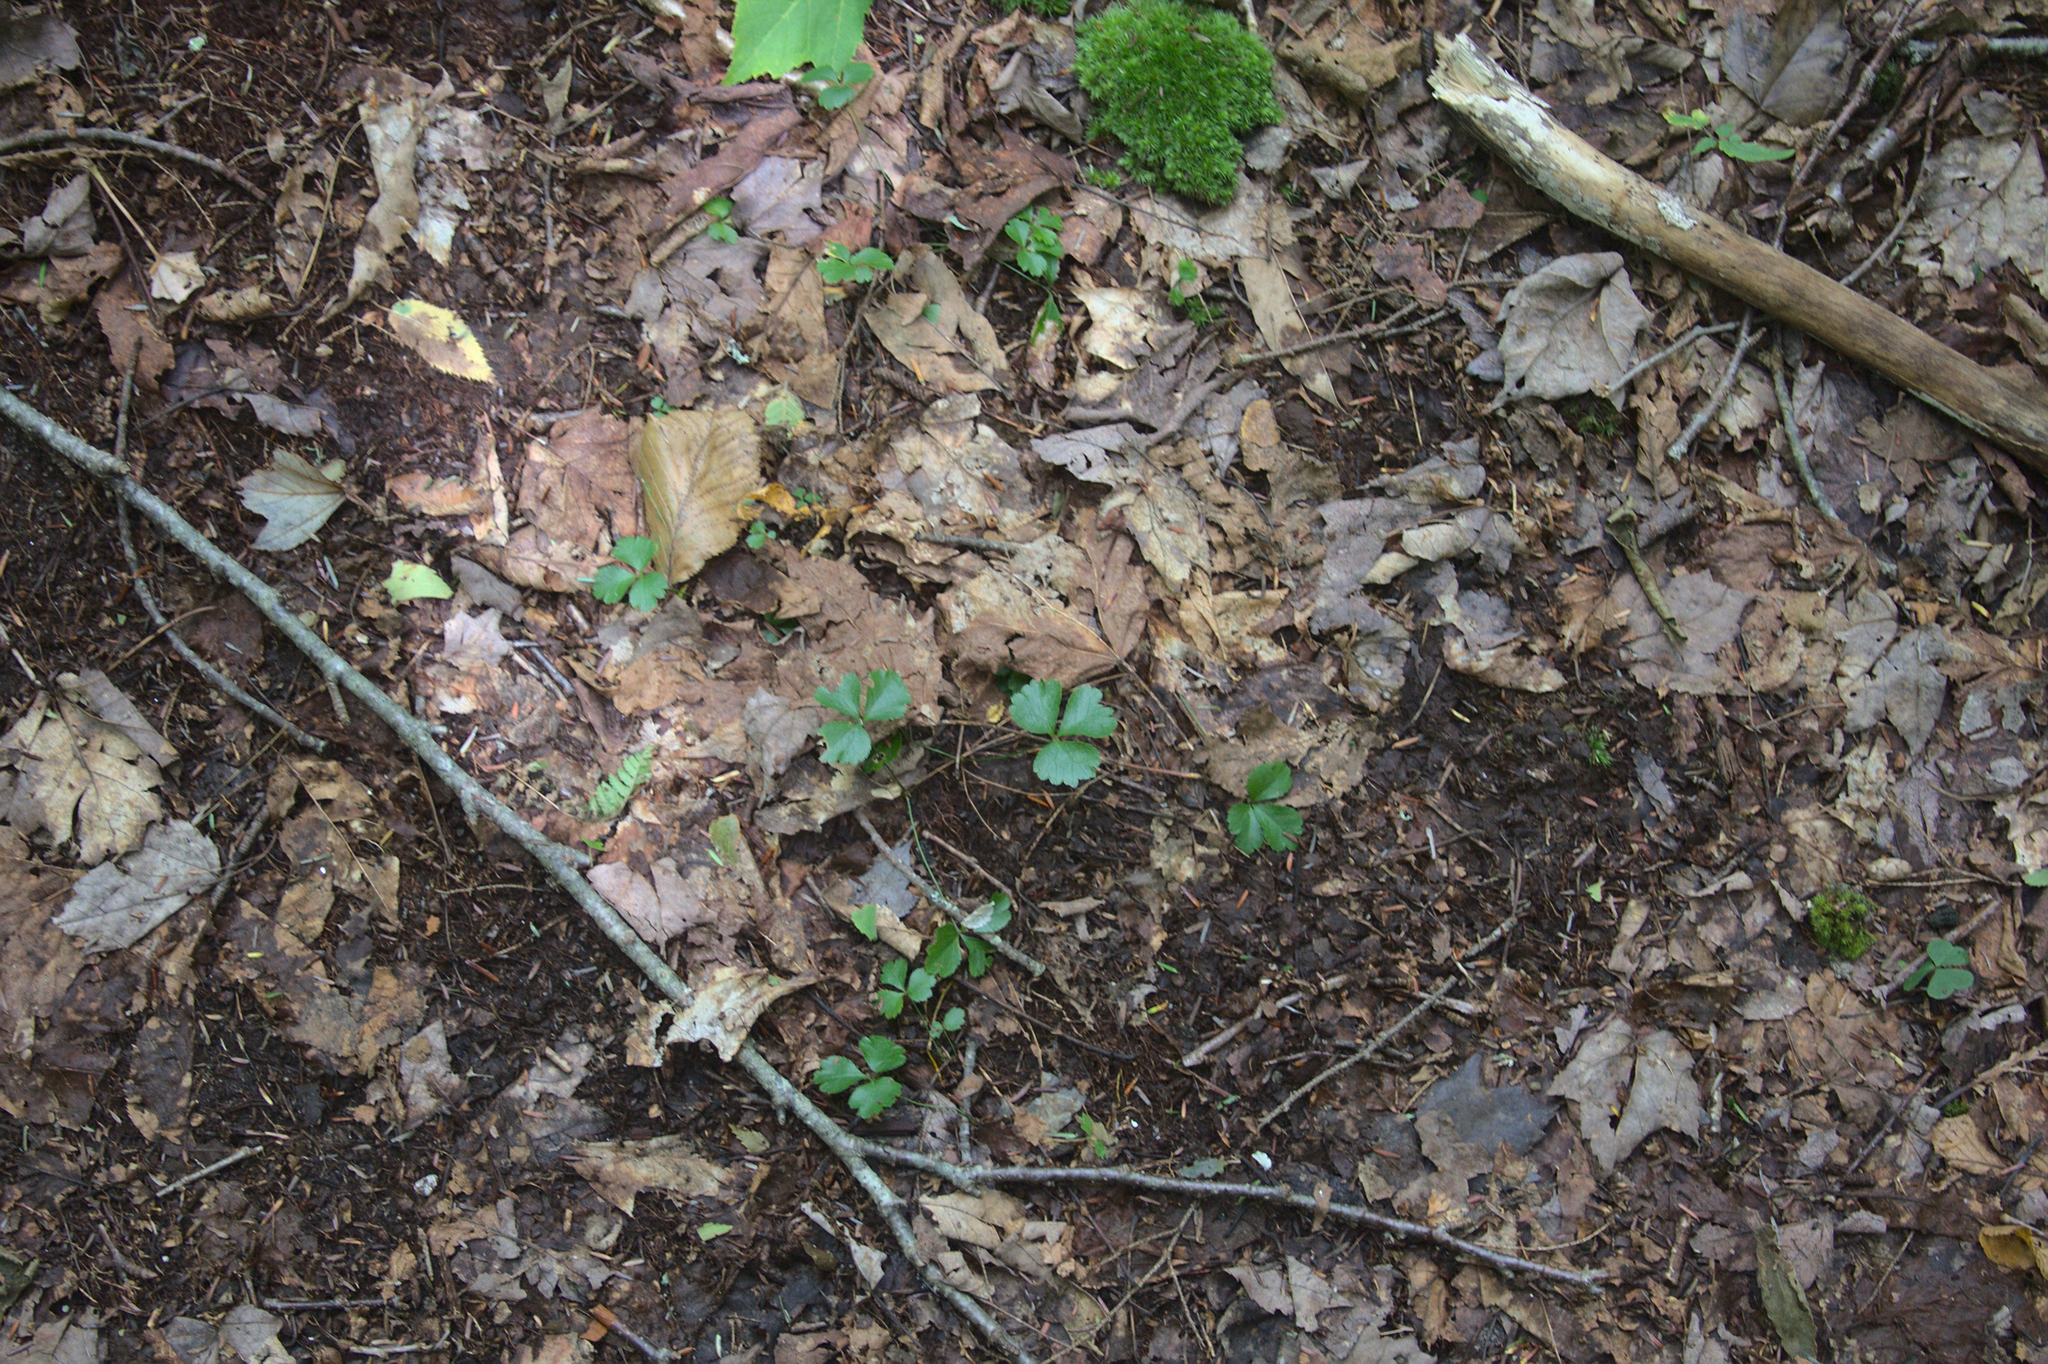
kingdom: Plantae
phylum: Tracheophyta
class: Magnoliopsida
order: Ranunculales
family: Ranunculaceae
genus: Coptis
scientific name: Coptis trifolia
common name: Canker-root
